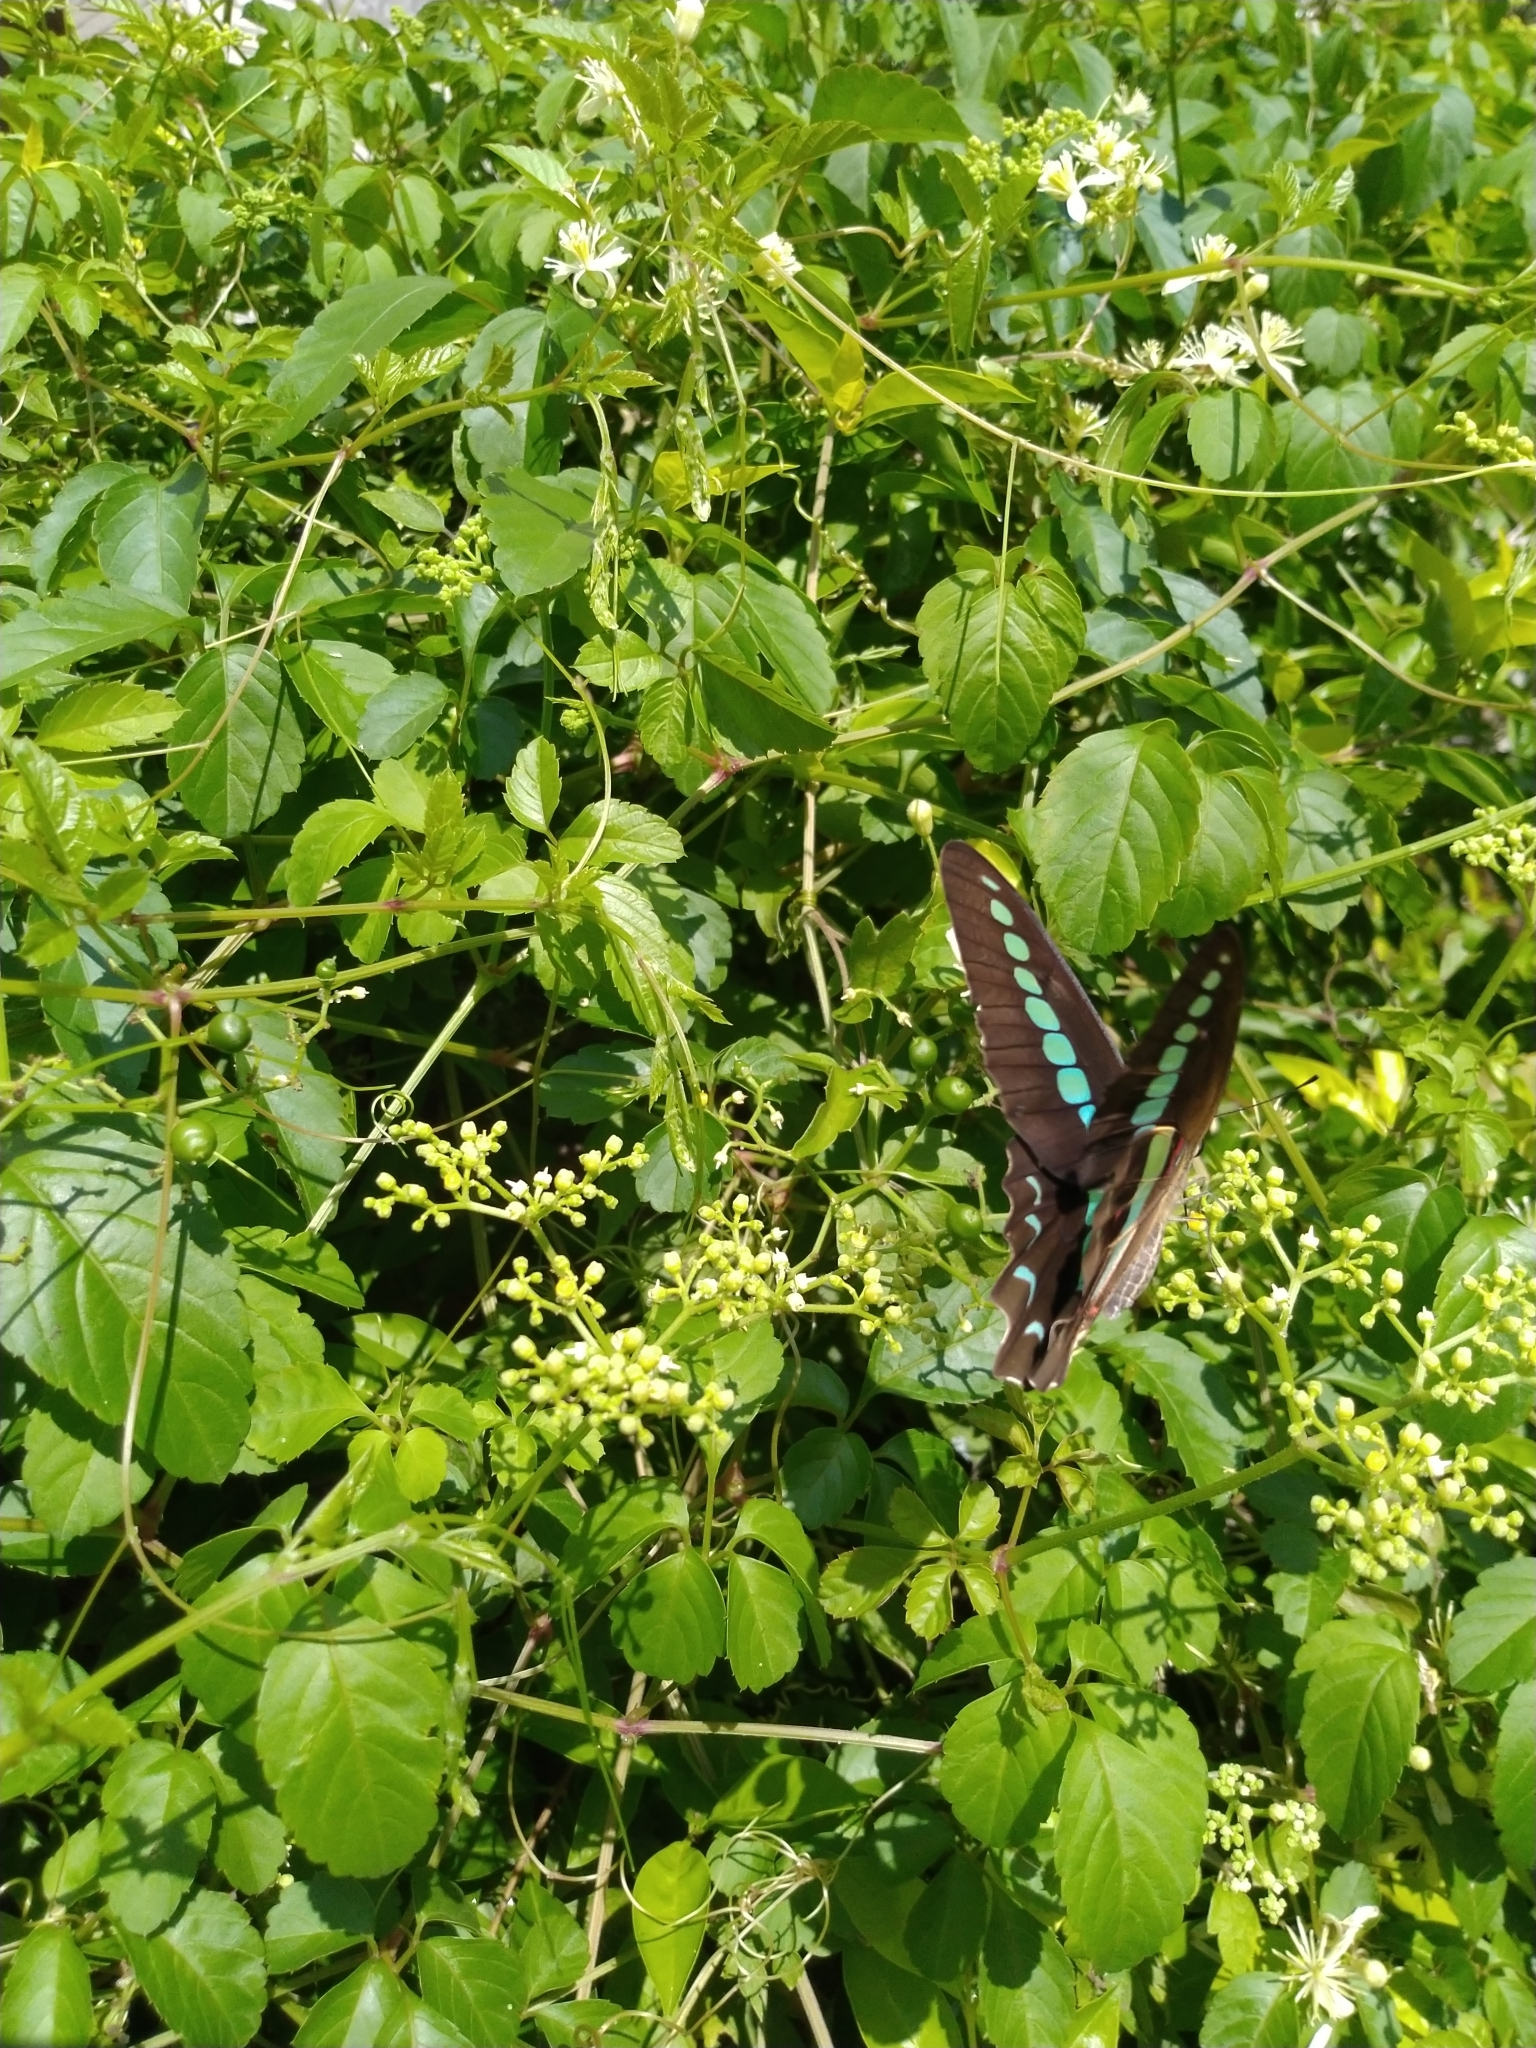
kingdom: Fungi
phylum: Ascomycota
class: Sordariomycetes
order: Microascales
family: Microascaceae
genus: Graphium
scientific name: Graphium sarpedon
